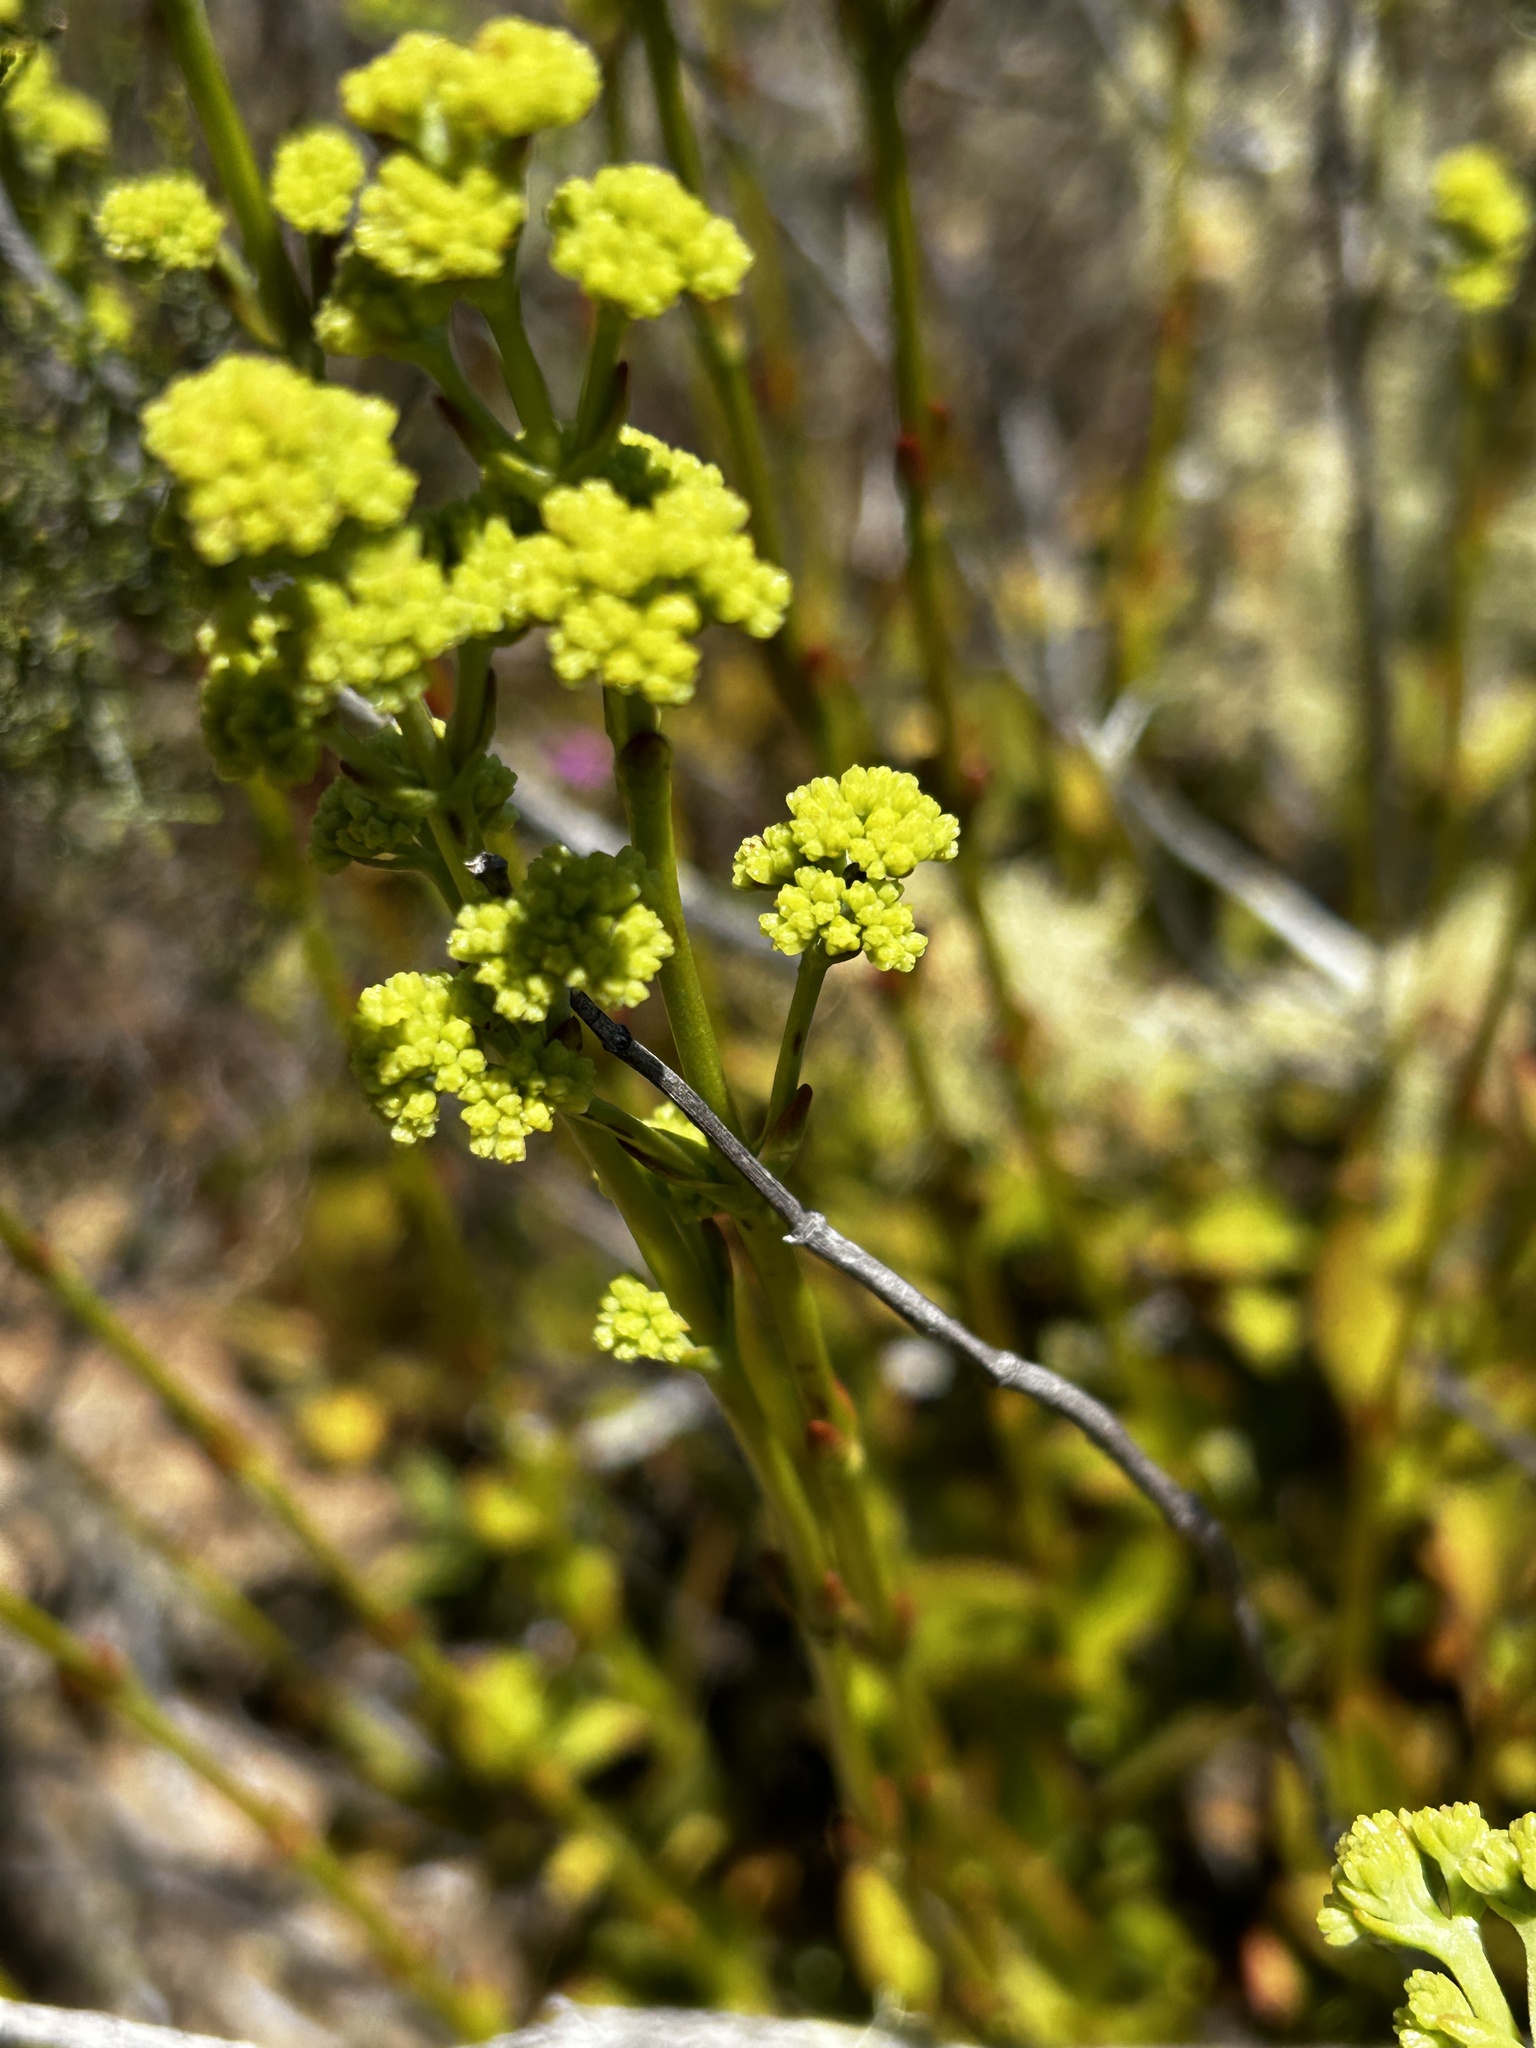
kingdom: Plantae
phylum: Tracheophyta
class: Magnoliopsida
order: Saxifragales
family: Crassulaceae
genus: Crassula
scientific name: Crassula cultrata
